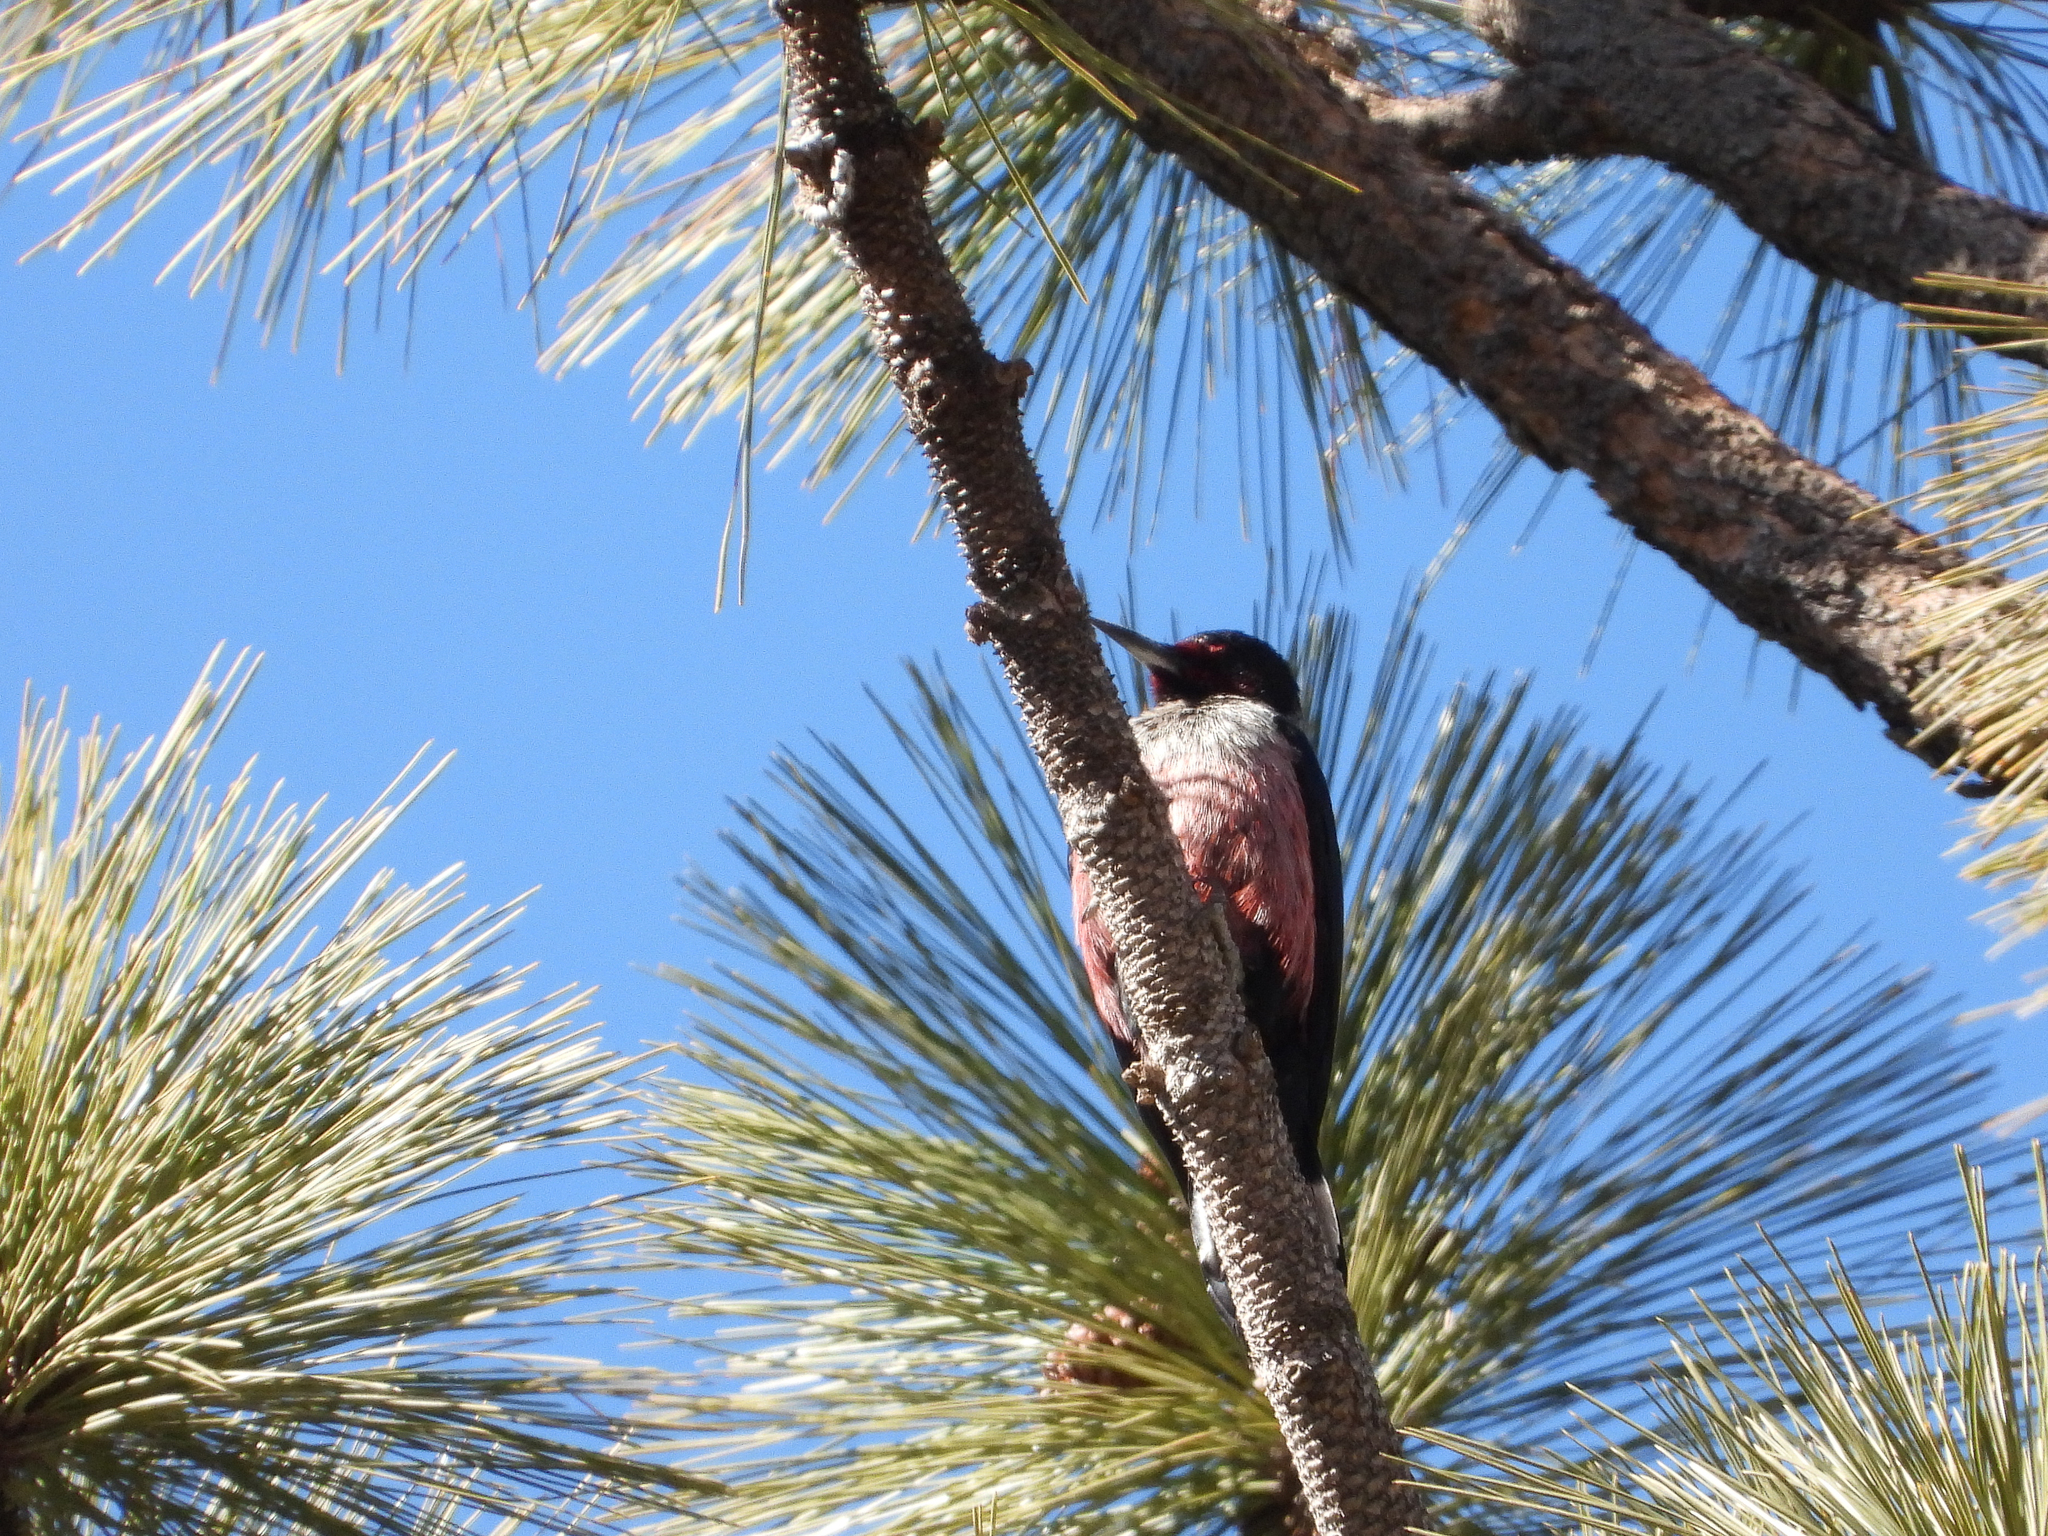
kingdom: Animalia
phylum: Chordata
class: Aves
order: Piciformes
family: Picidae
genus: Melanerpes
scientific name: Melanerpes lewis
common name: Lewis's woodpecker
